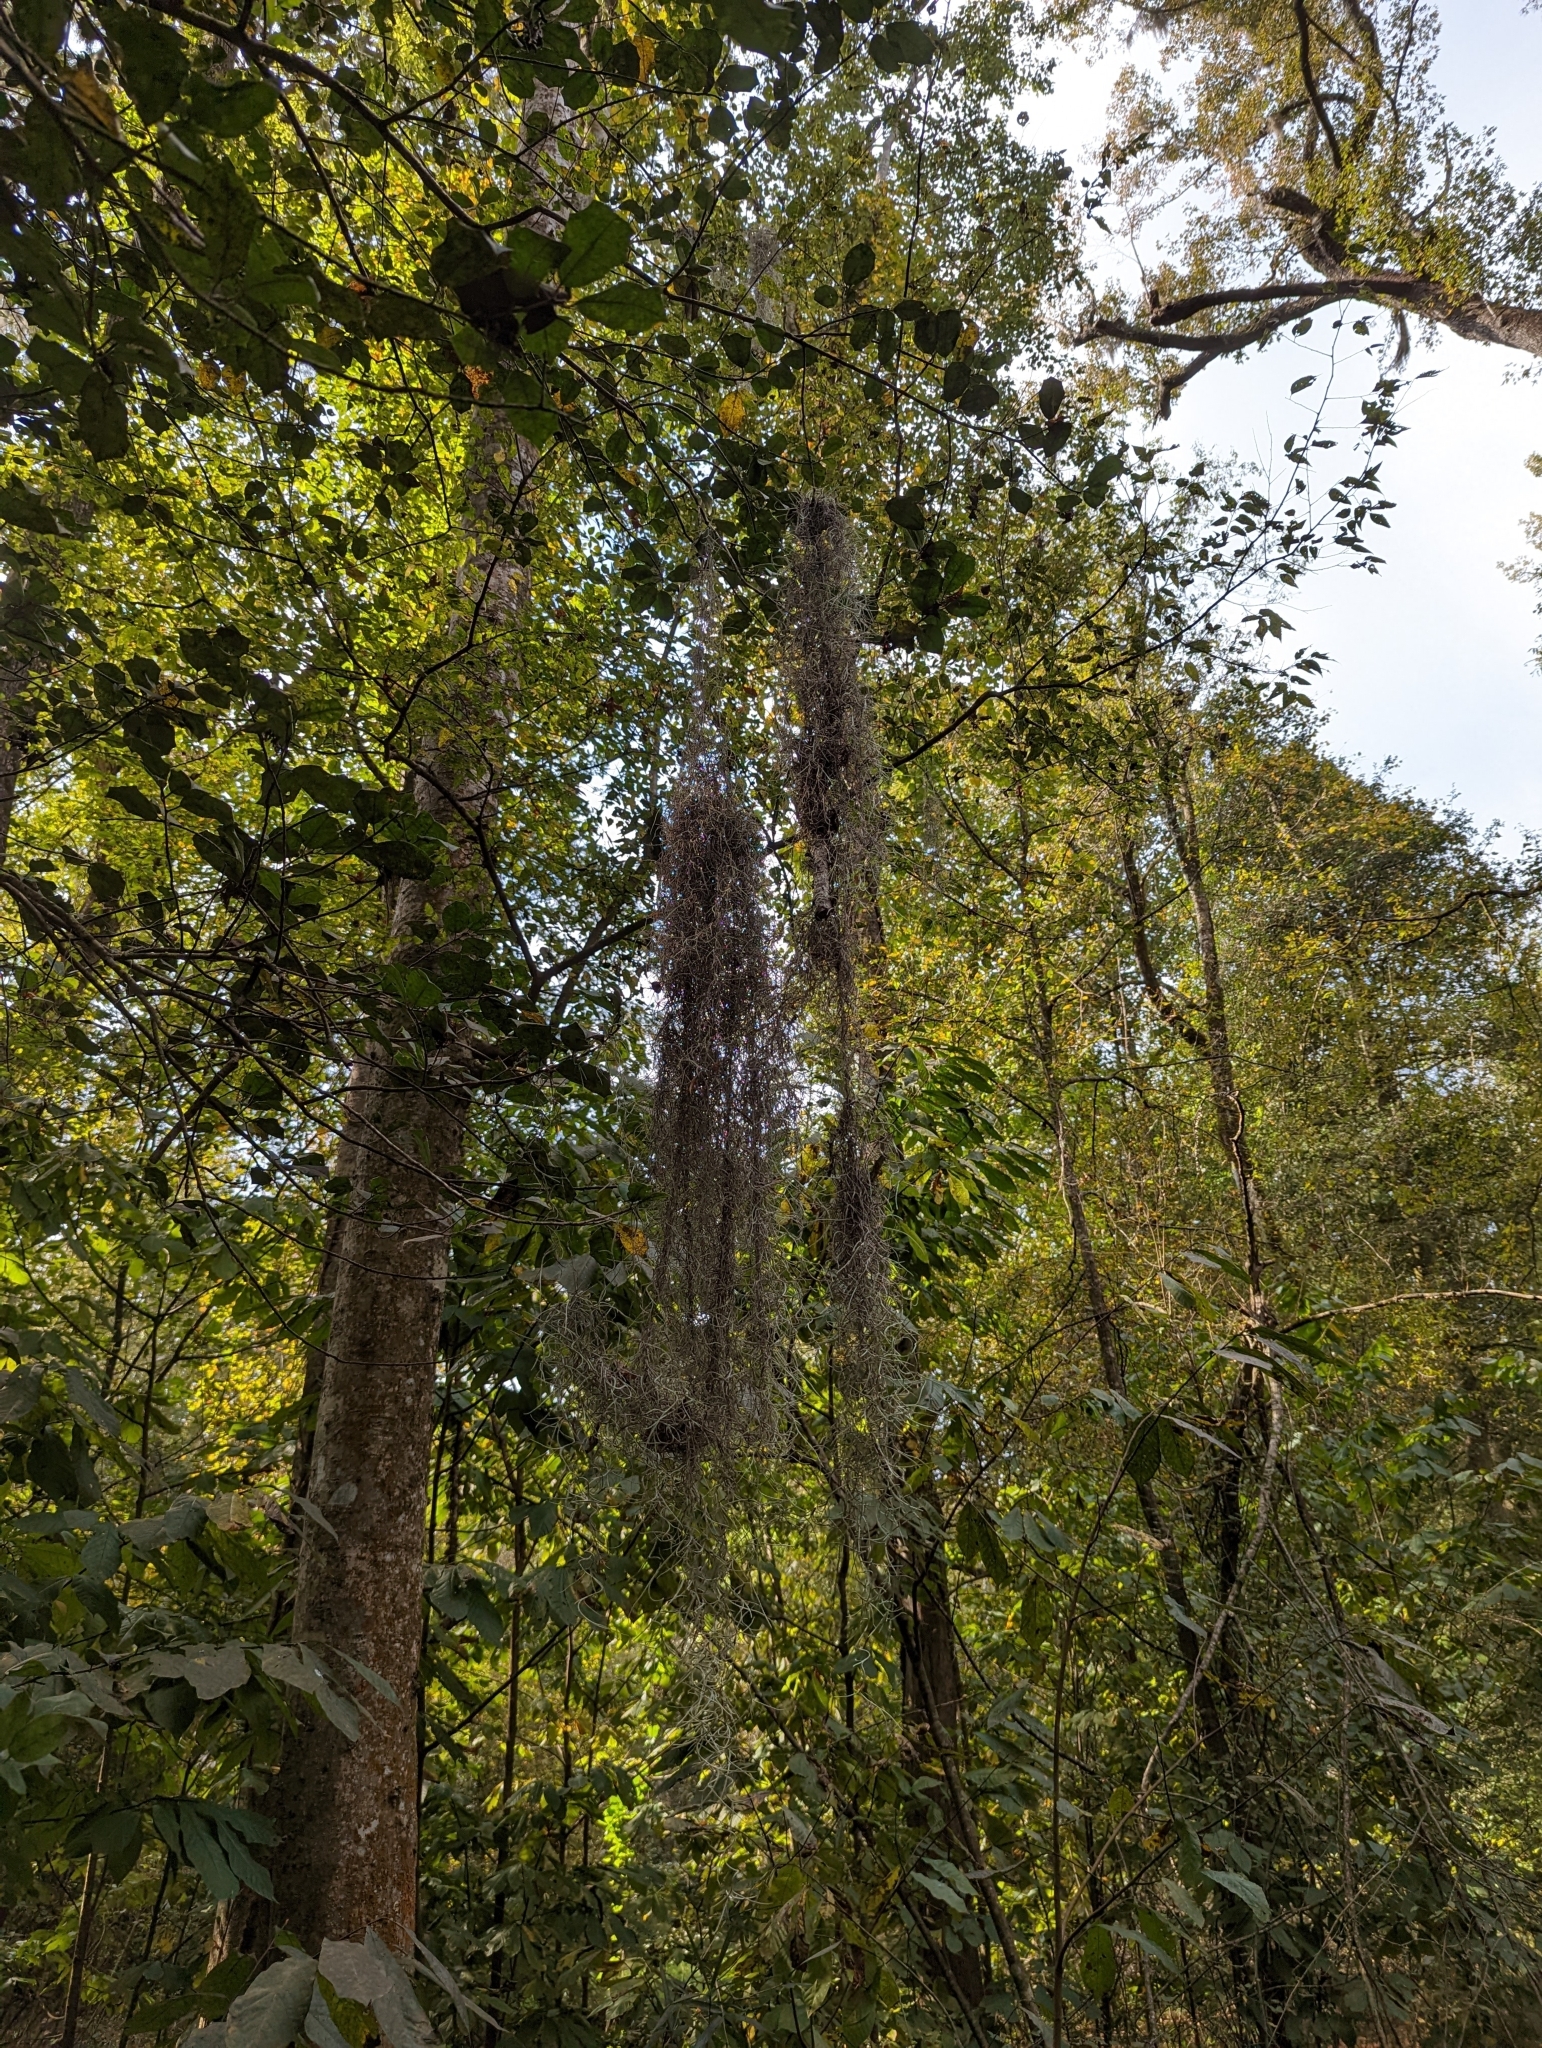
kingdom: Plantae
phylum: Tracheophyta
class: Liliopsida
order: Poales
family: Bromeliaceae
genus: Tillandsia
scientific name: Tillandsia usneoides
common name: Spanish moss
